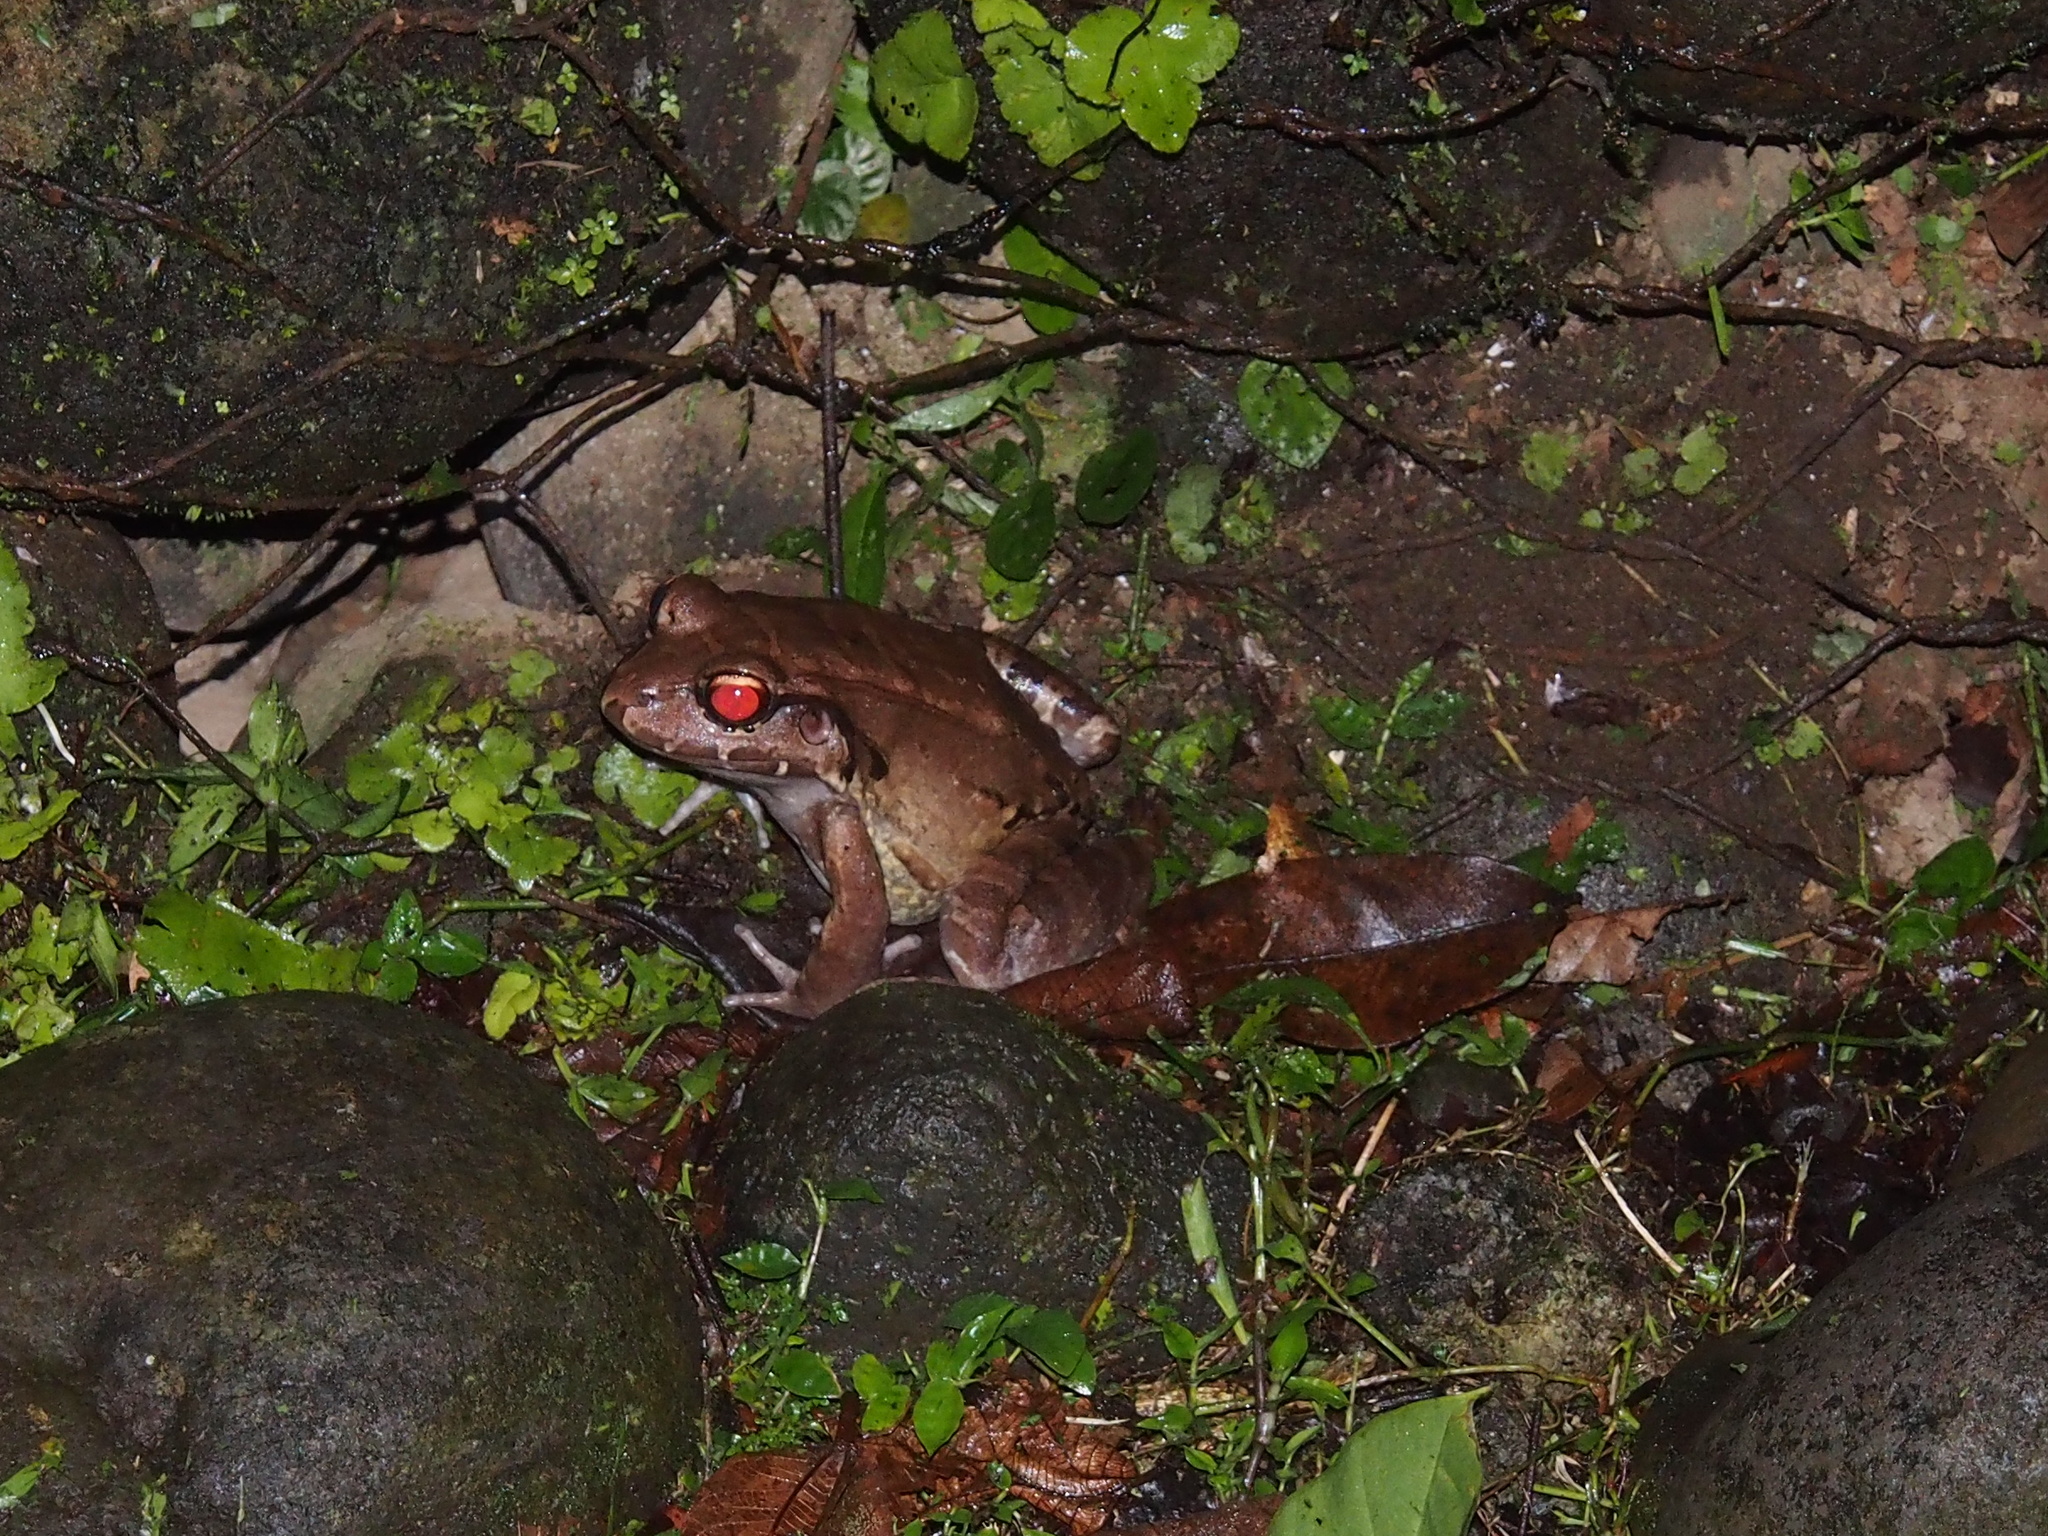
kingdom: Animalia
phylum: Chordata
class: Amphibia
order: Anura
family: Leptodactylidae
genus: Leptodactylus
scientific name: Leptodactylus savagei
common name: Savage's thin-toed frog
